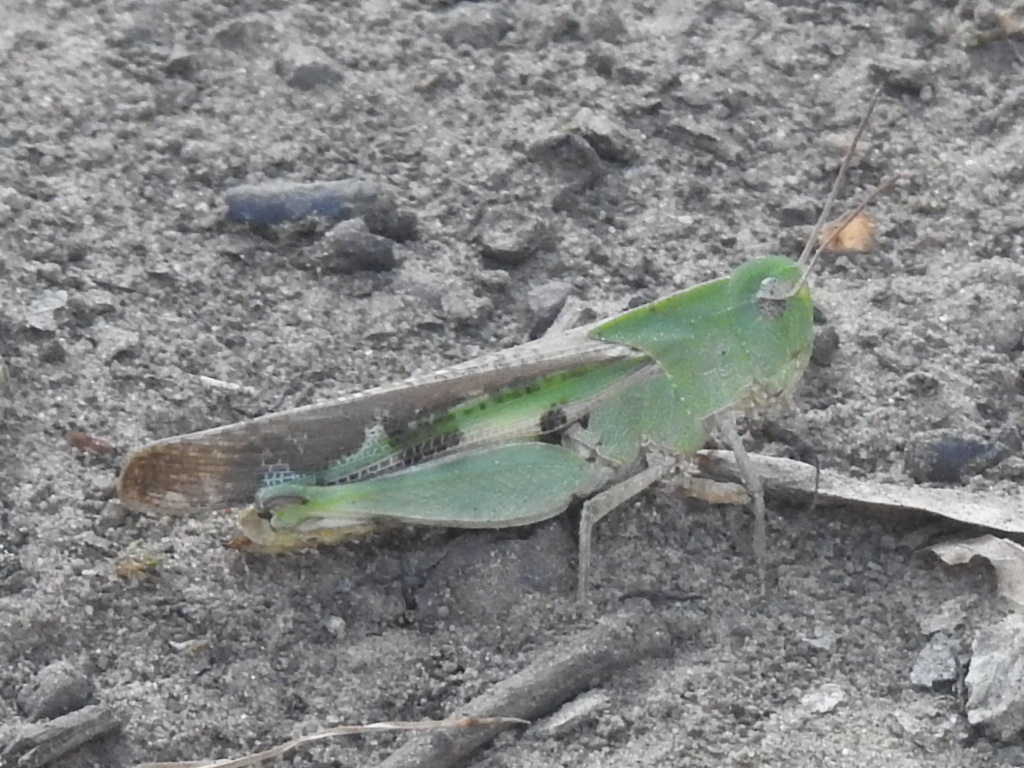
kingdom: Animalia
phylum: Arthropoda
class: Insecta
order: Orthoptera
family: Acrididae
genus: Chortophaga
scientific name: Chortophaga viridifasciata
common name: Green-striped grasshopper
